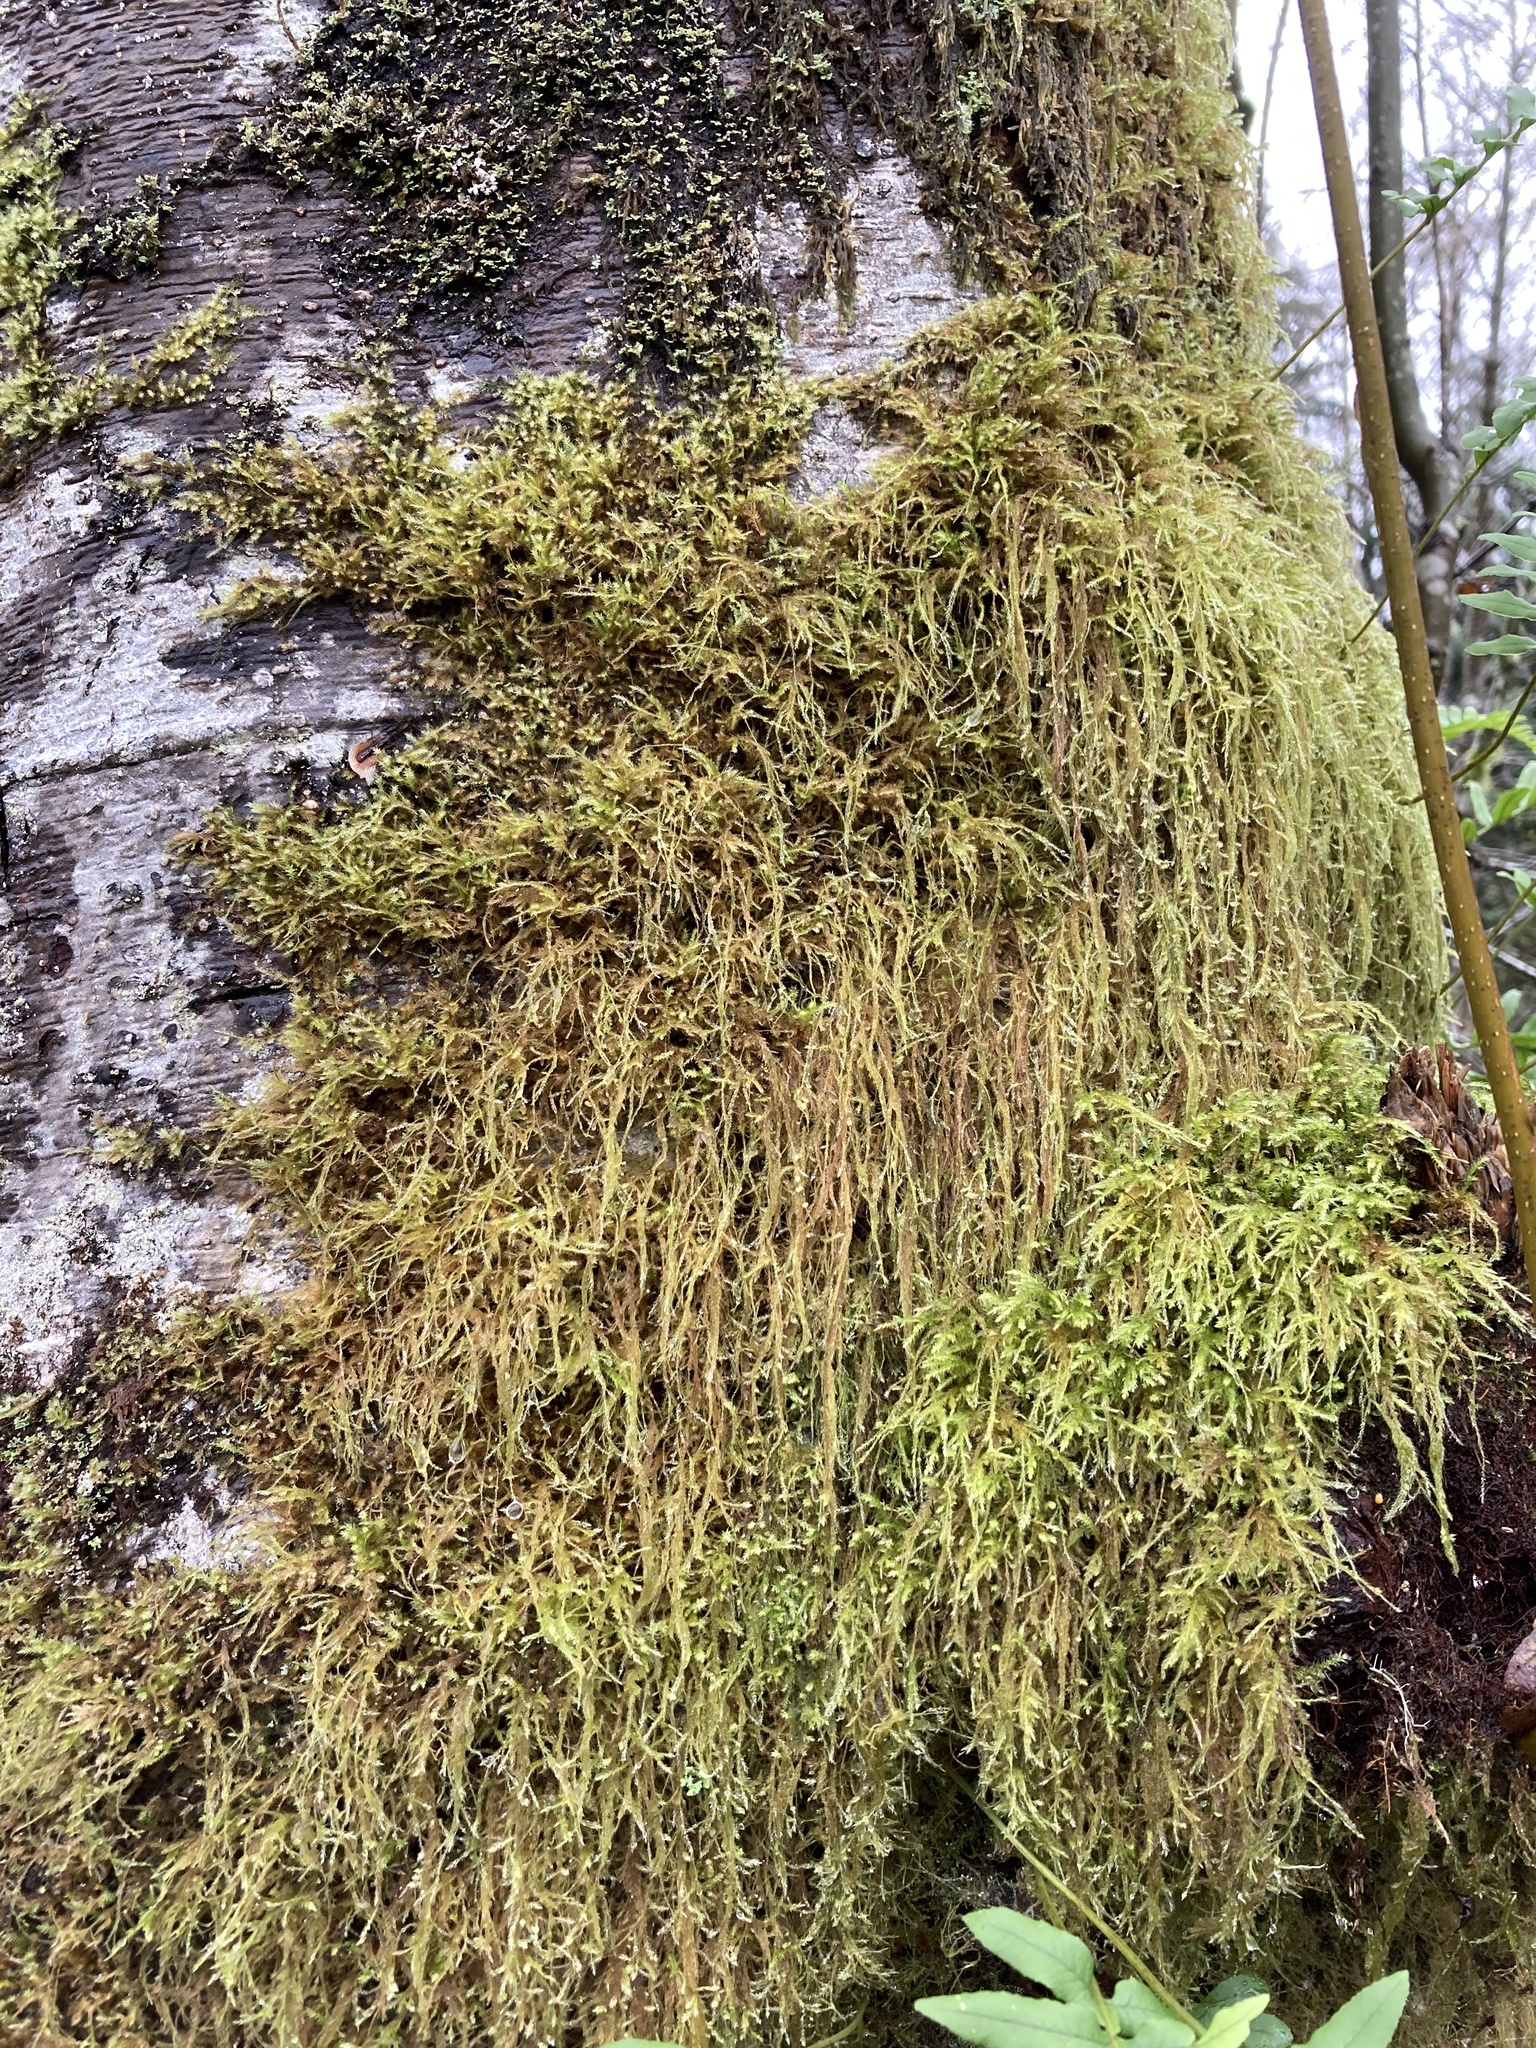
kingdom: Plantae
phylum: Bryophyta
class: Bryopsida
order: Hypnales
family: Lembophyllaceae
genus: Pseudisothecium
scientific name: Pseudisothecium stoloniferum
